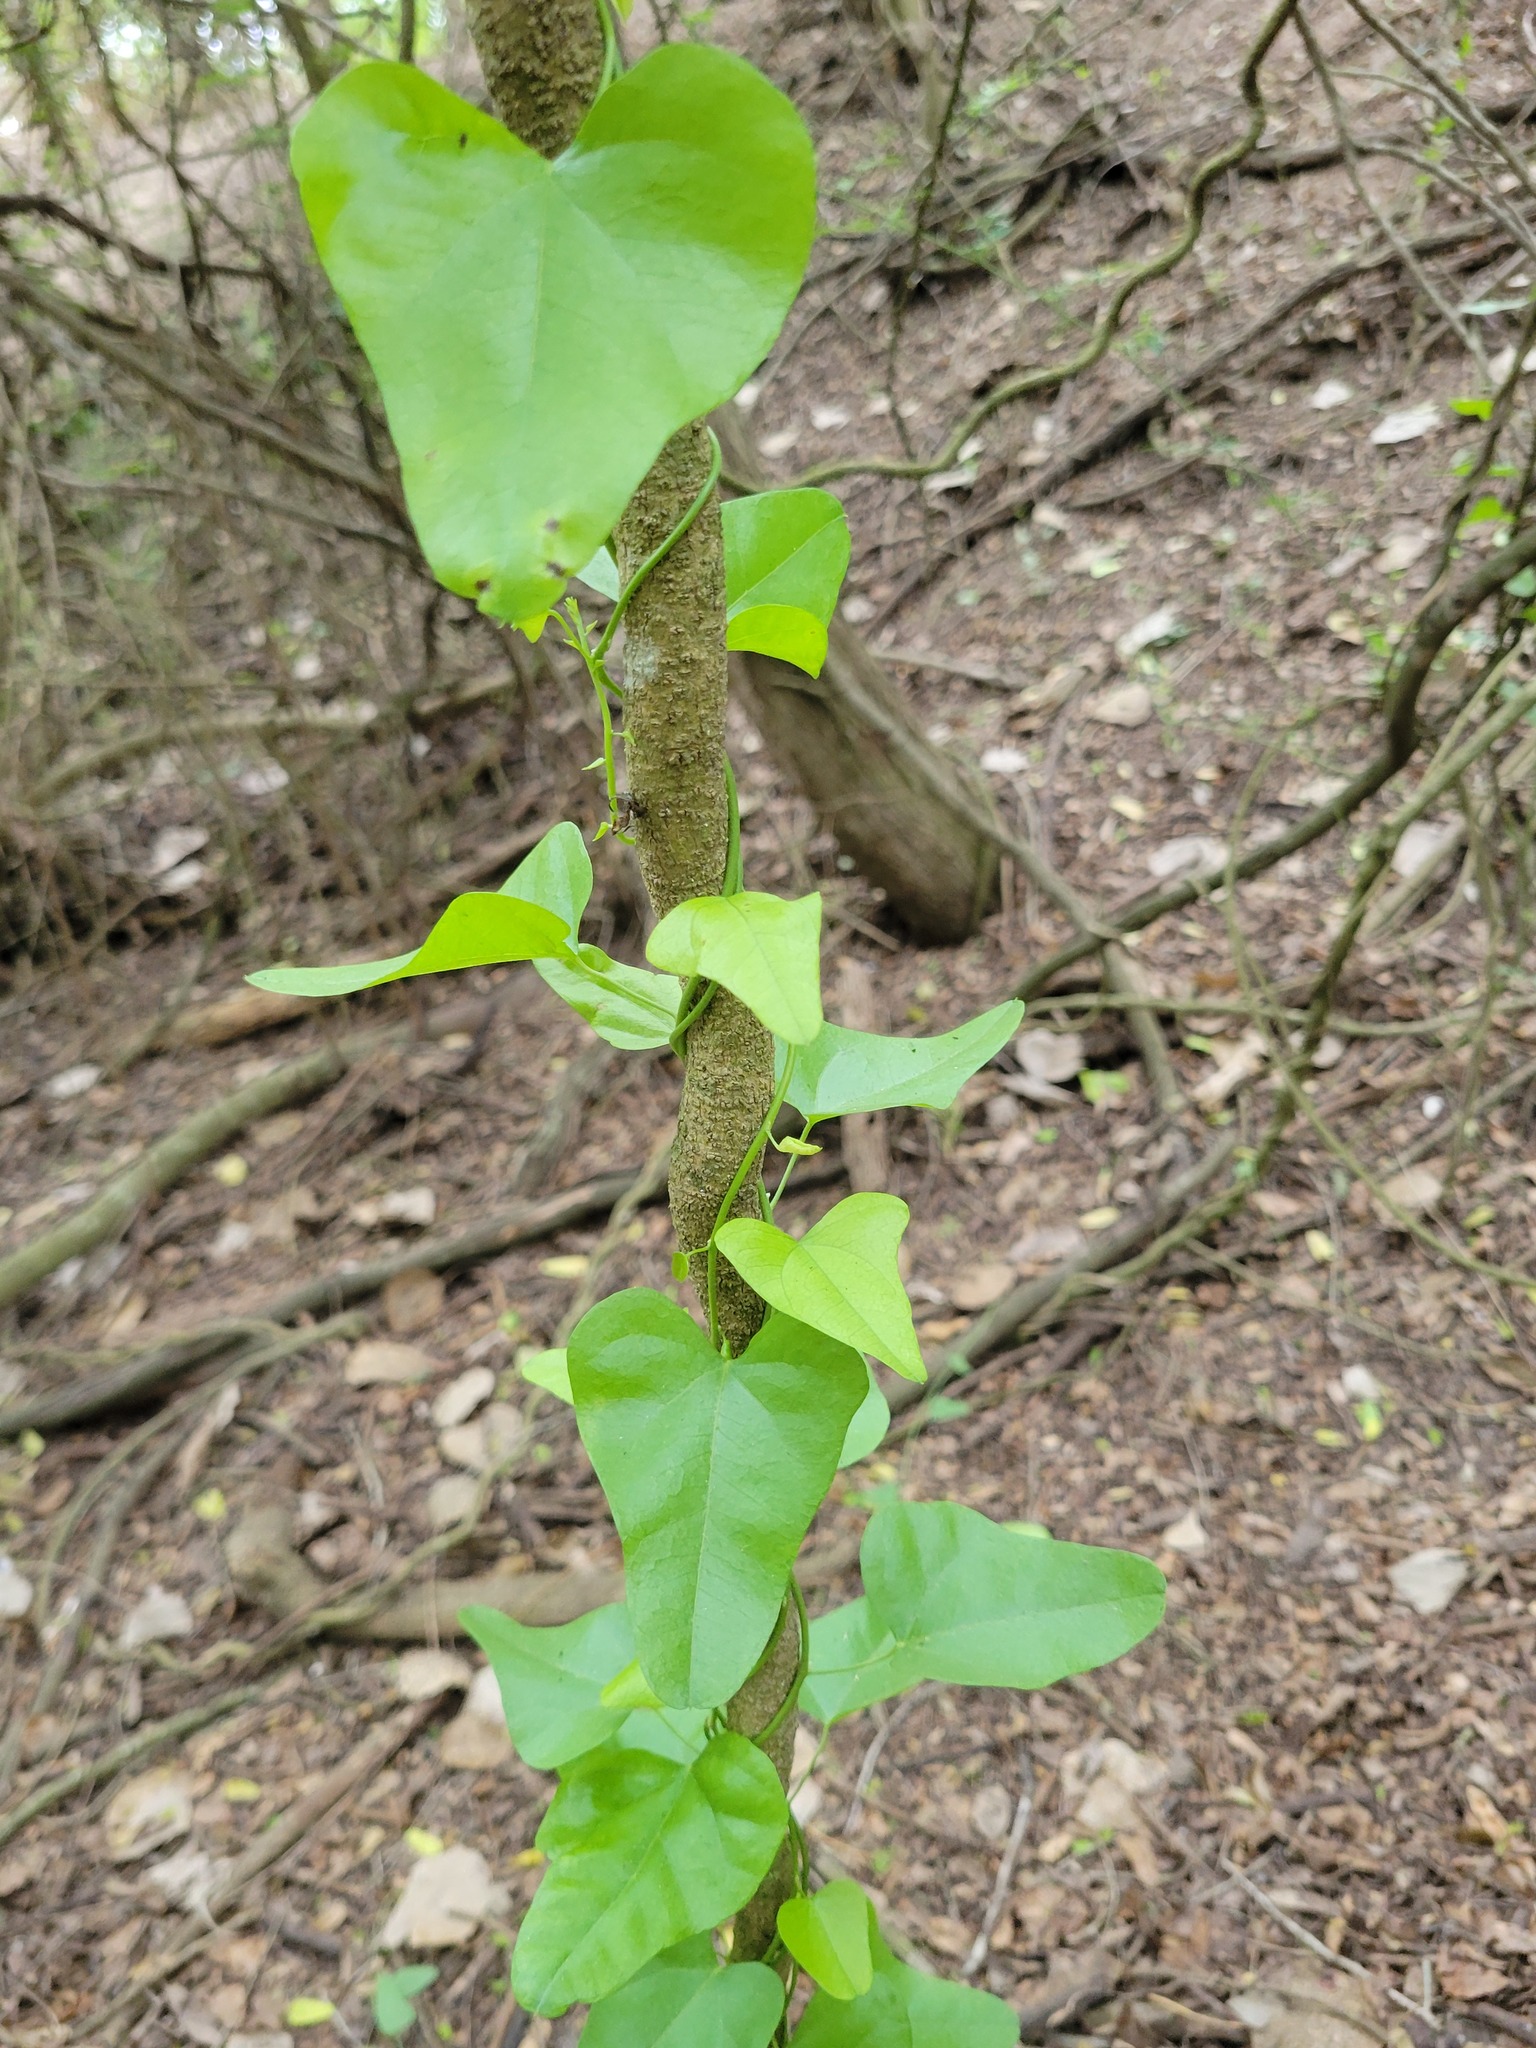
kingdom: Plantae
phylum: Tracheophyta
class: Magnoliopsida
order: Ranunculales
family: Menispermaceae
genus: Cocculus
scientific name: Cocculus diversifolius
